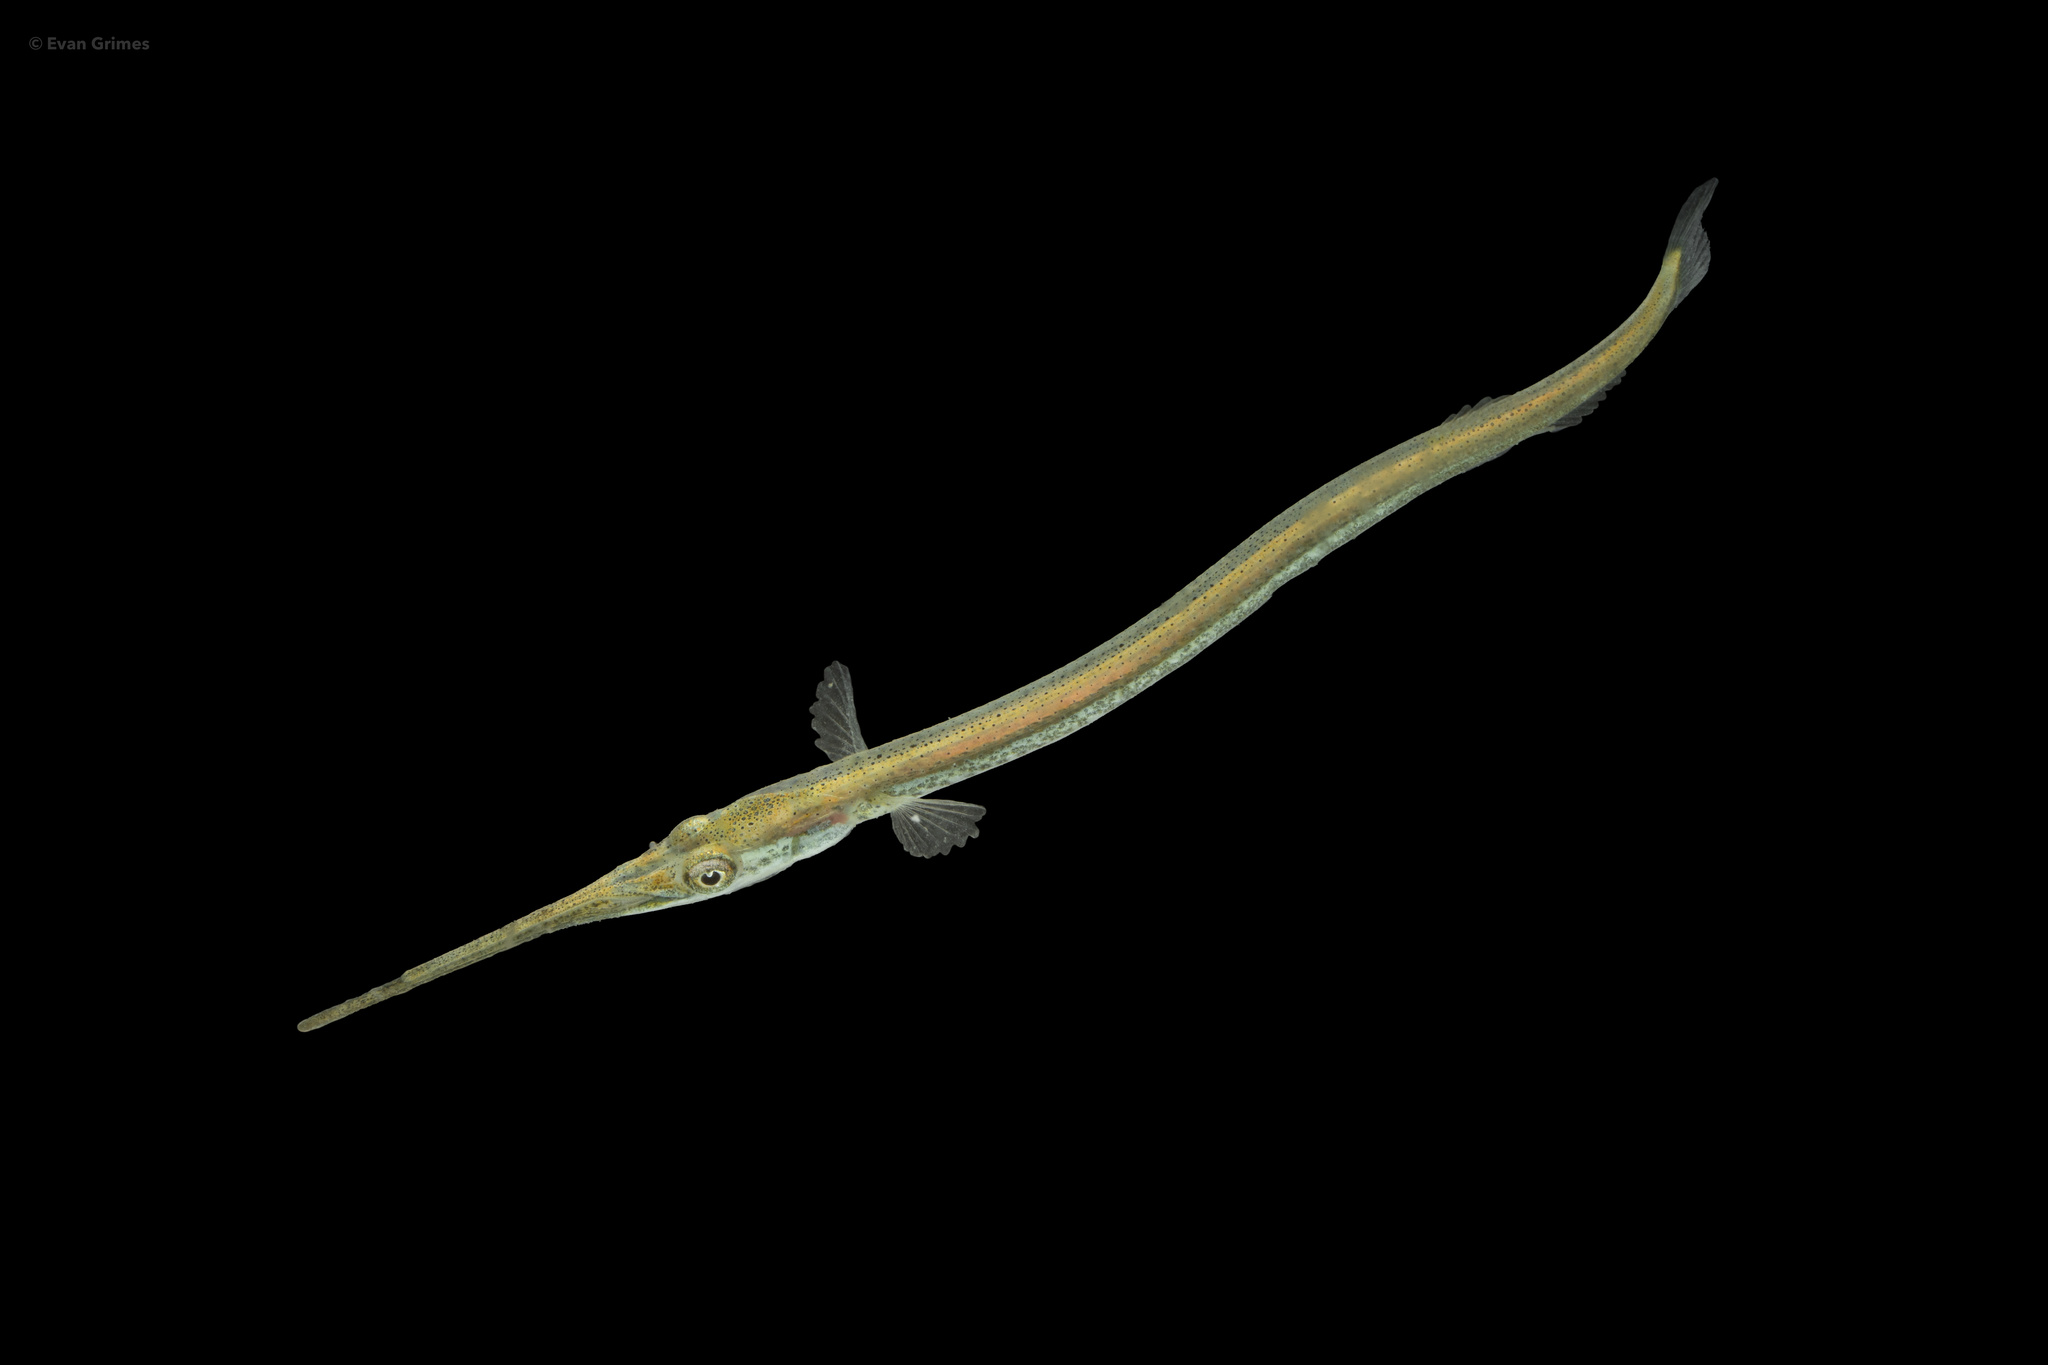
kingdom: Animalia
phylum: Chordata
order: Beloniformes
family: Belonidae
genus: Strongylura
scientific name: Strongylura marina
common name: Atlantic needlefish
